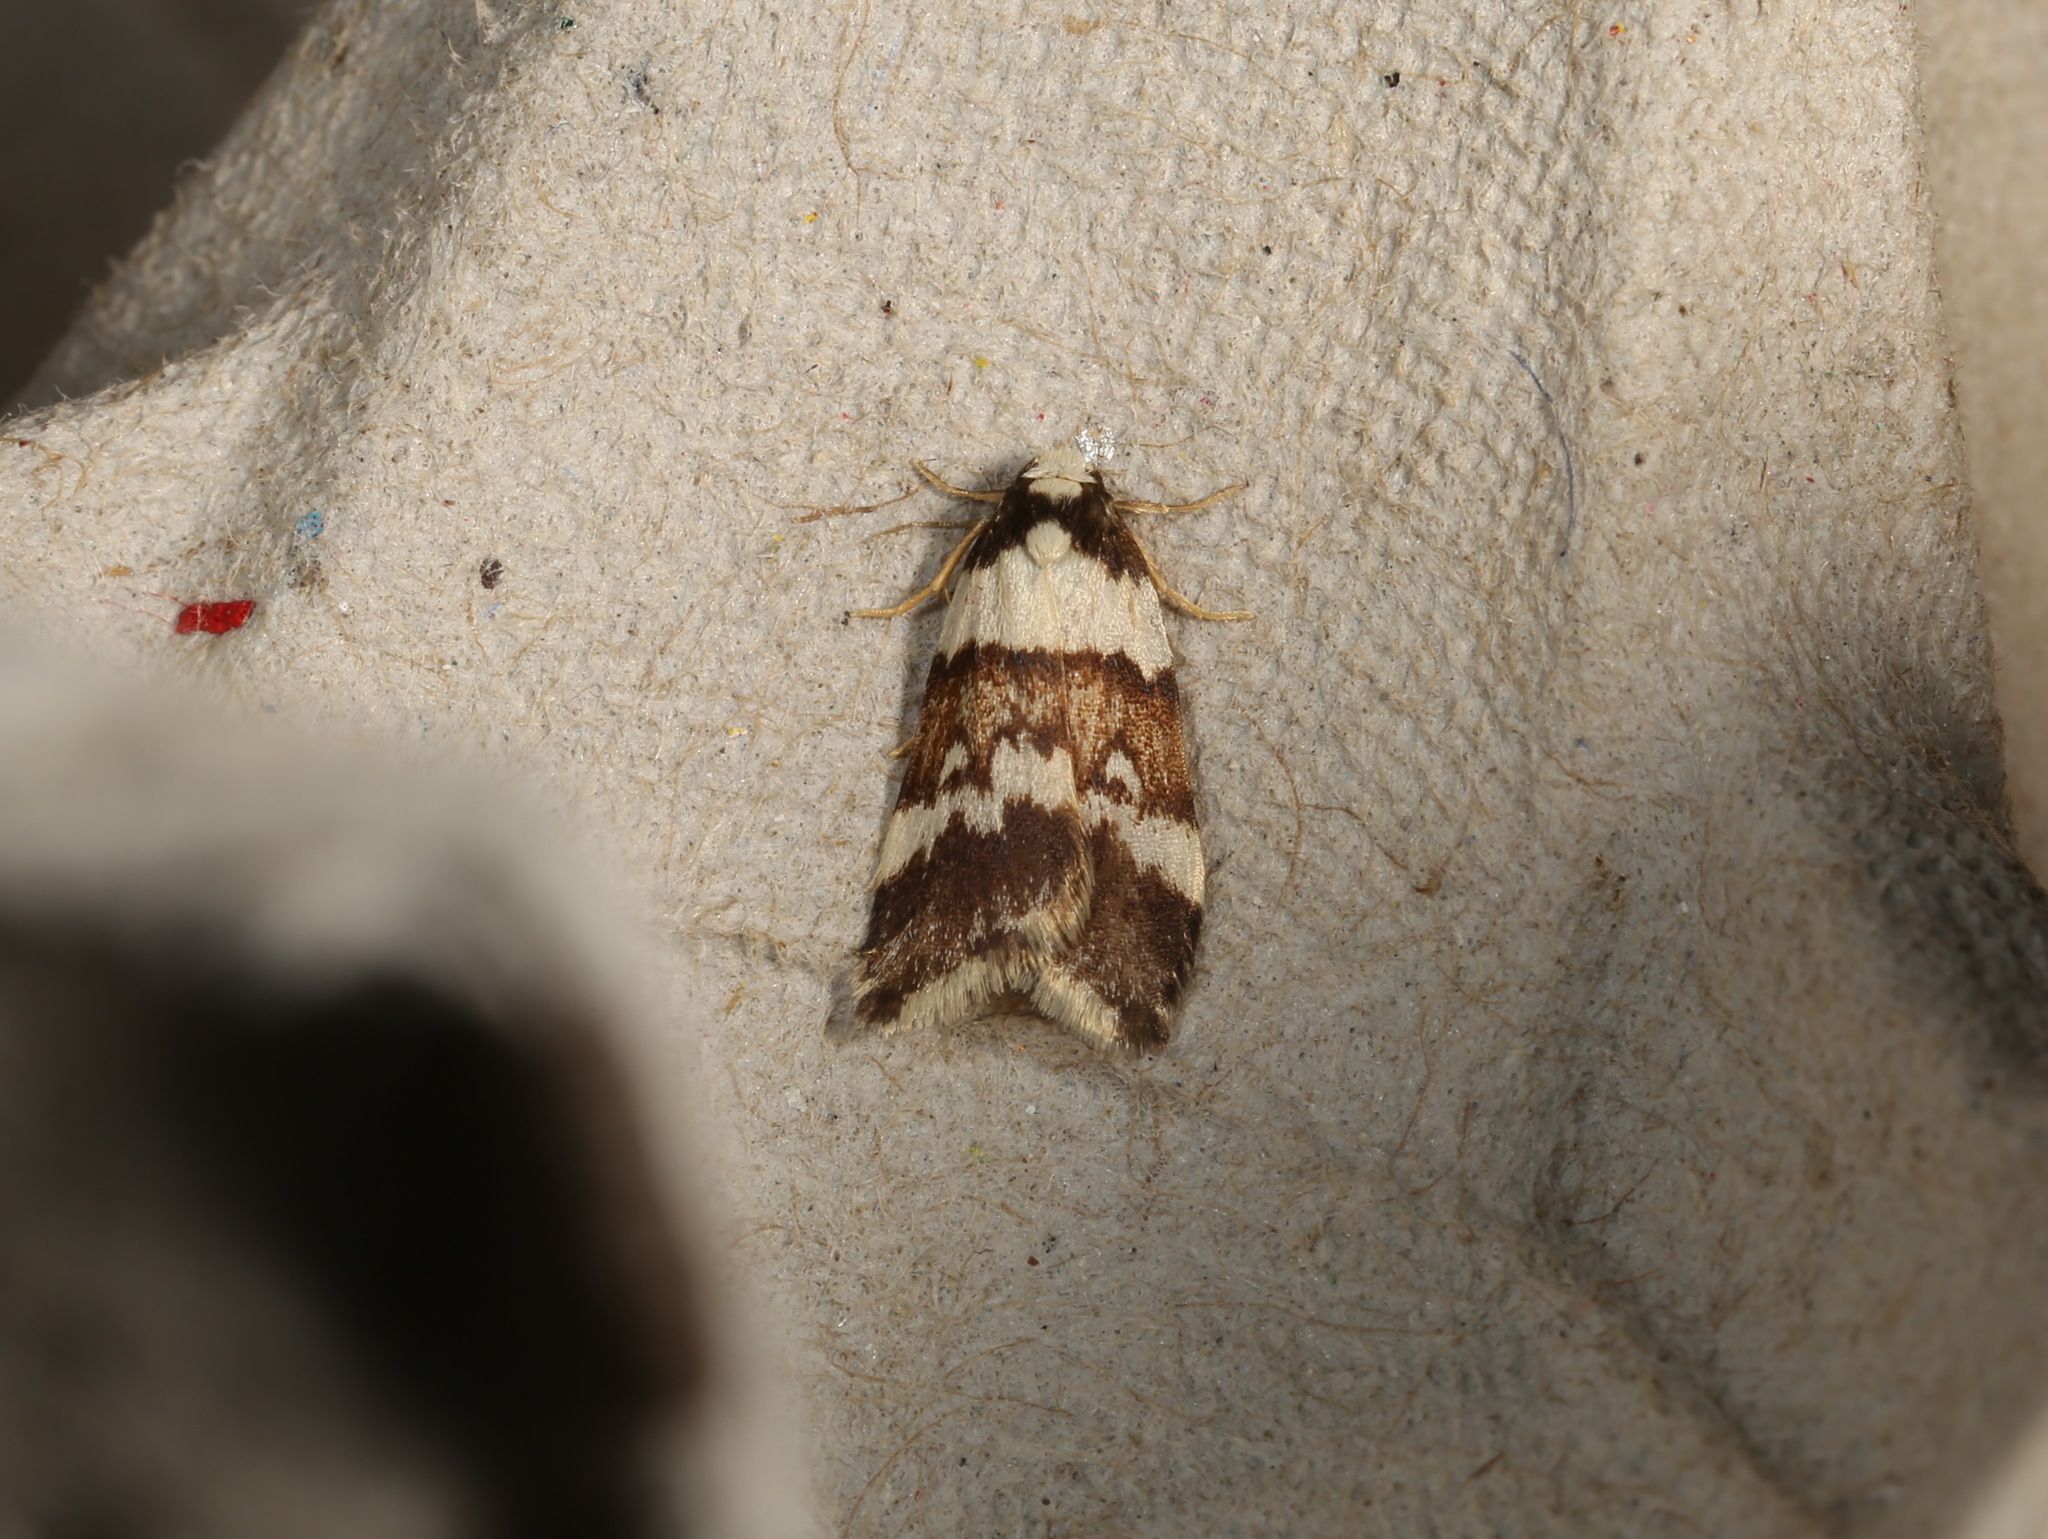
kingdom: Animalia
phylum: Arthropoda
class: Insecta
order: Lepidoptera
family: Erebidae
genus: Halone
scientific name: Halone sejuncta
